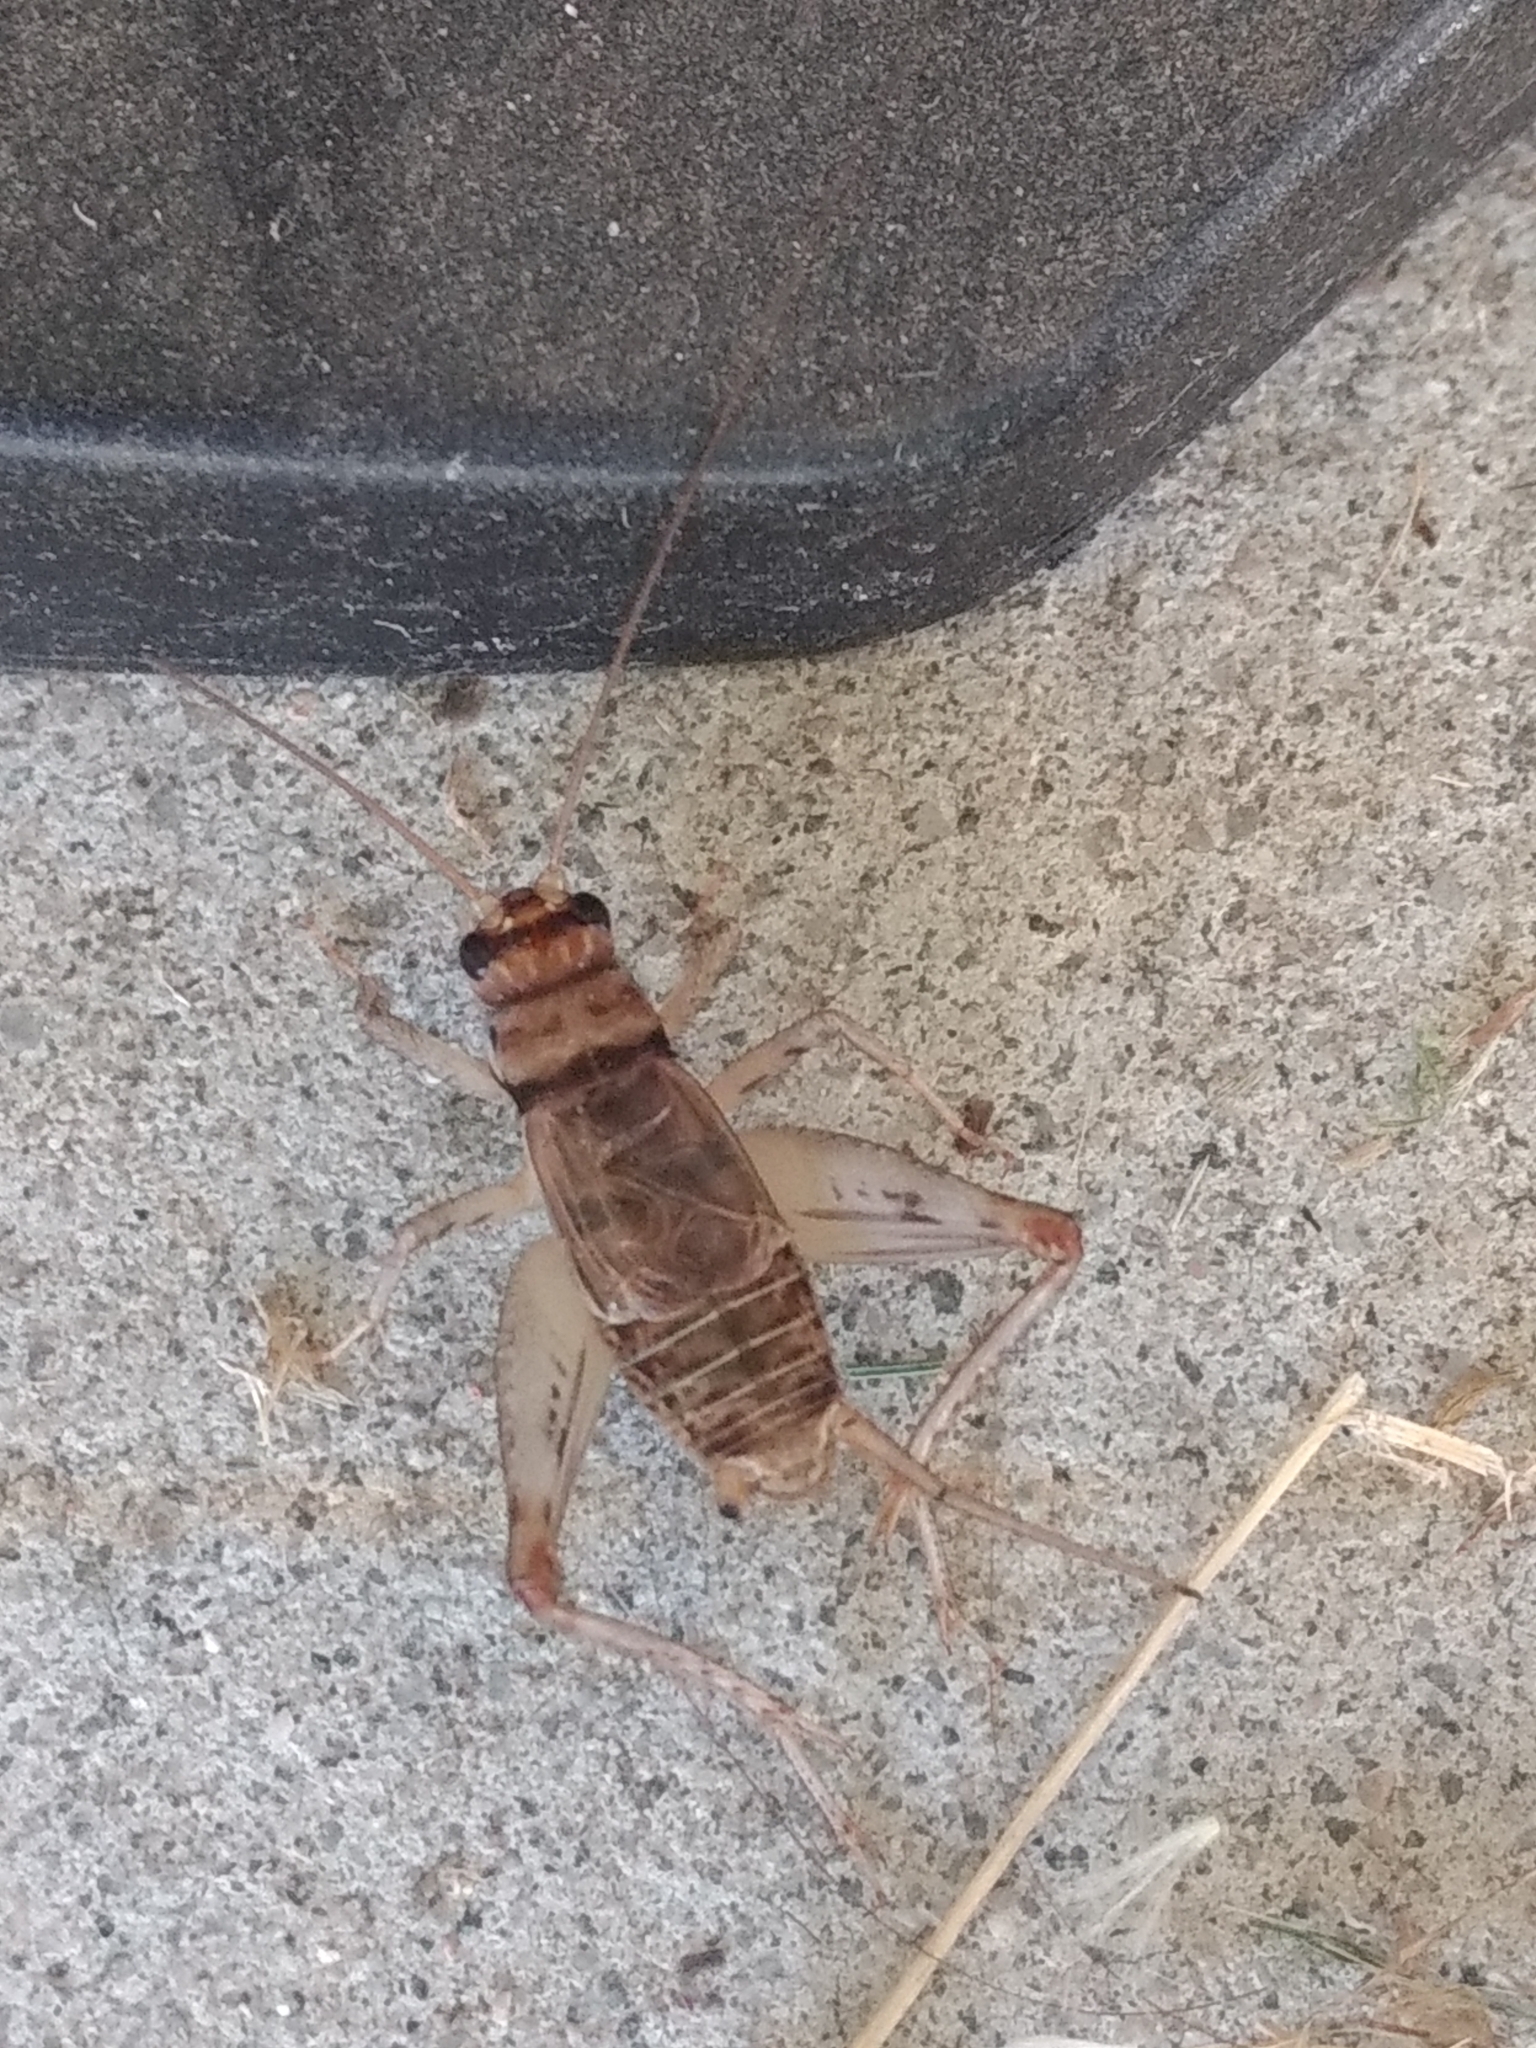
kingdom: Animalia
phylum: Arthropoda
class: Insecta
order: Orthoptera
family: Gryllidae
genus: Gryllodes
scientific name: Gryllodes sigillatus
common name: Tropical house cricket
